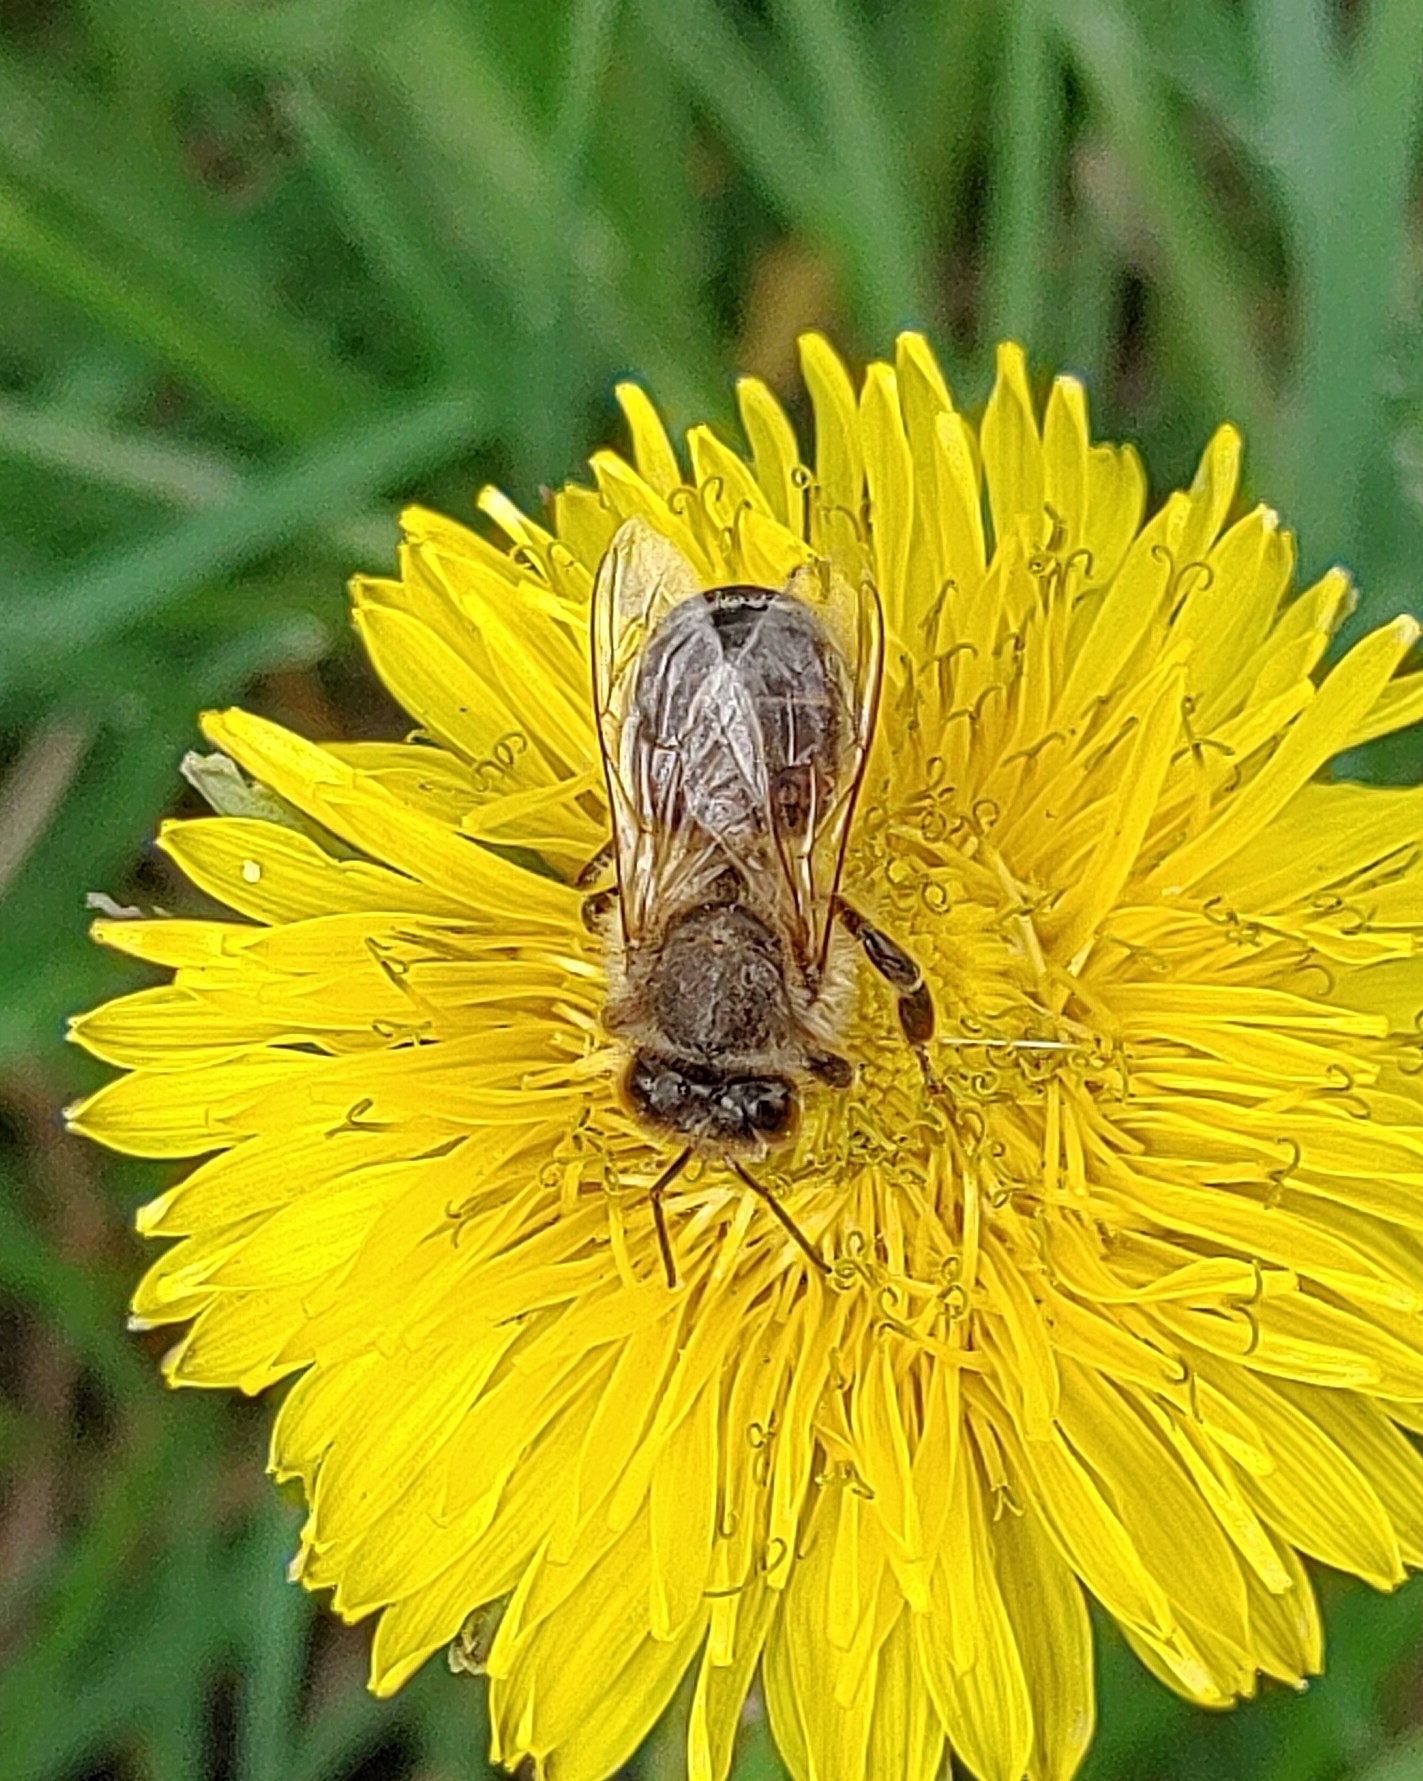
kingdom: Animalia
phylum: Arthropoda
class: Insecta
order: Hymenoptera
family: Apidae
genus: Apis
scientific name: Apis mellifera
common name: Honey bee
